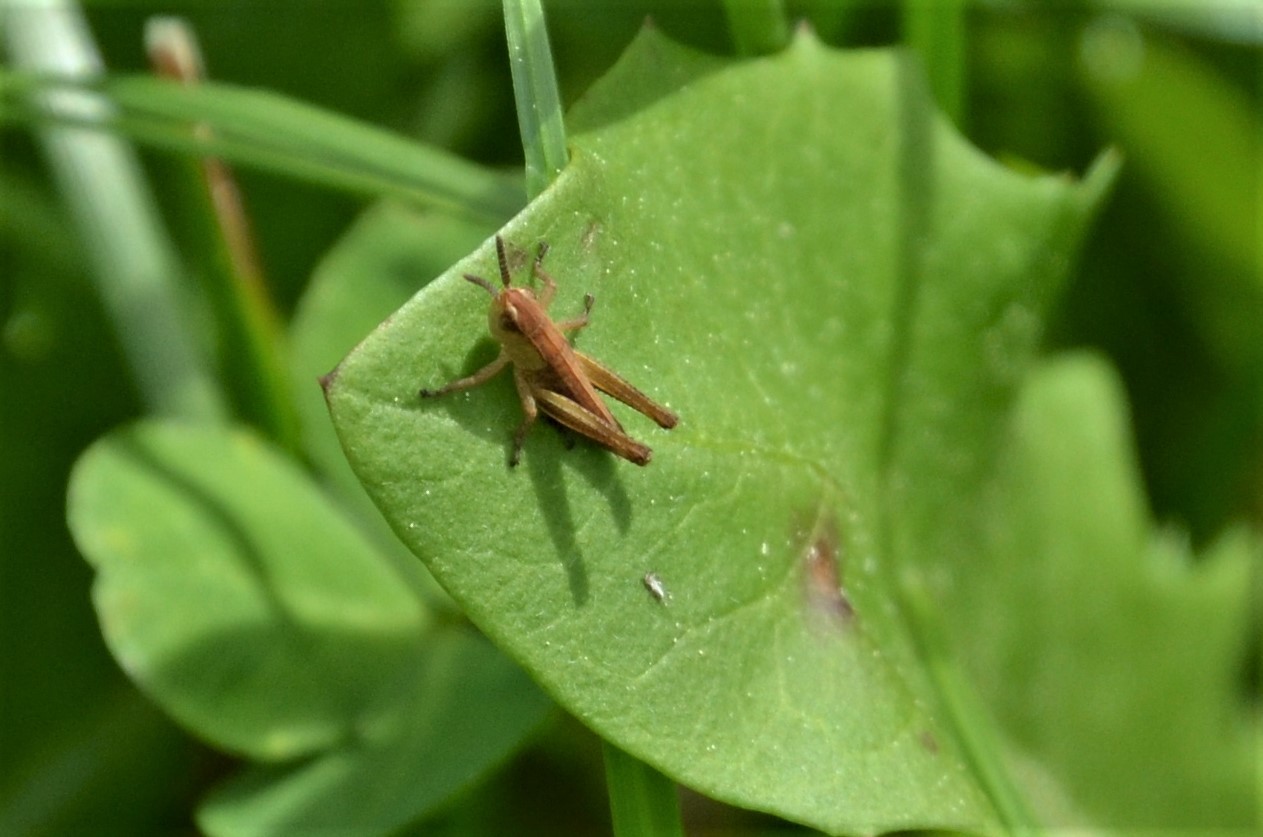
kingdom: Animalia
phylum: Arthropoda
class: Insecta
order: Orthoptera
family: Acrididae
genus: Pseudochorthippus
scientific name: Pseudochorthippus parallelus
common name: Meadow grasshopper
